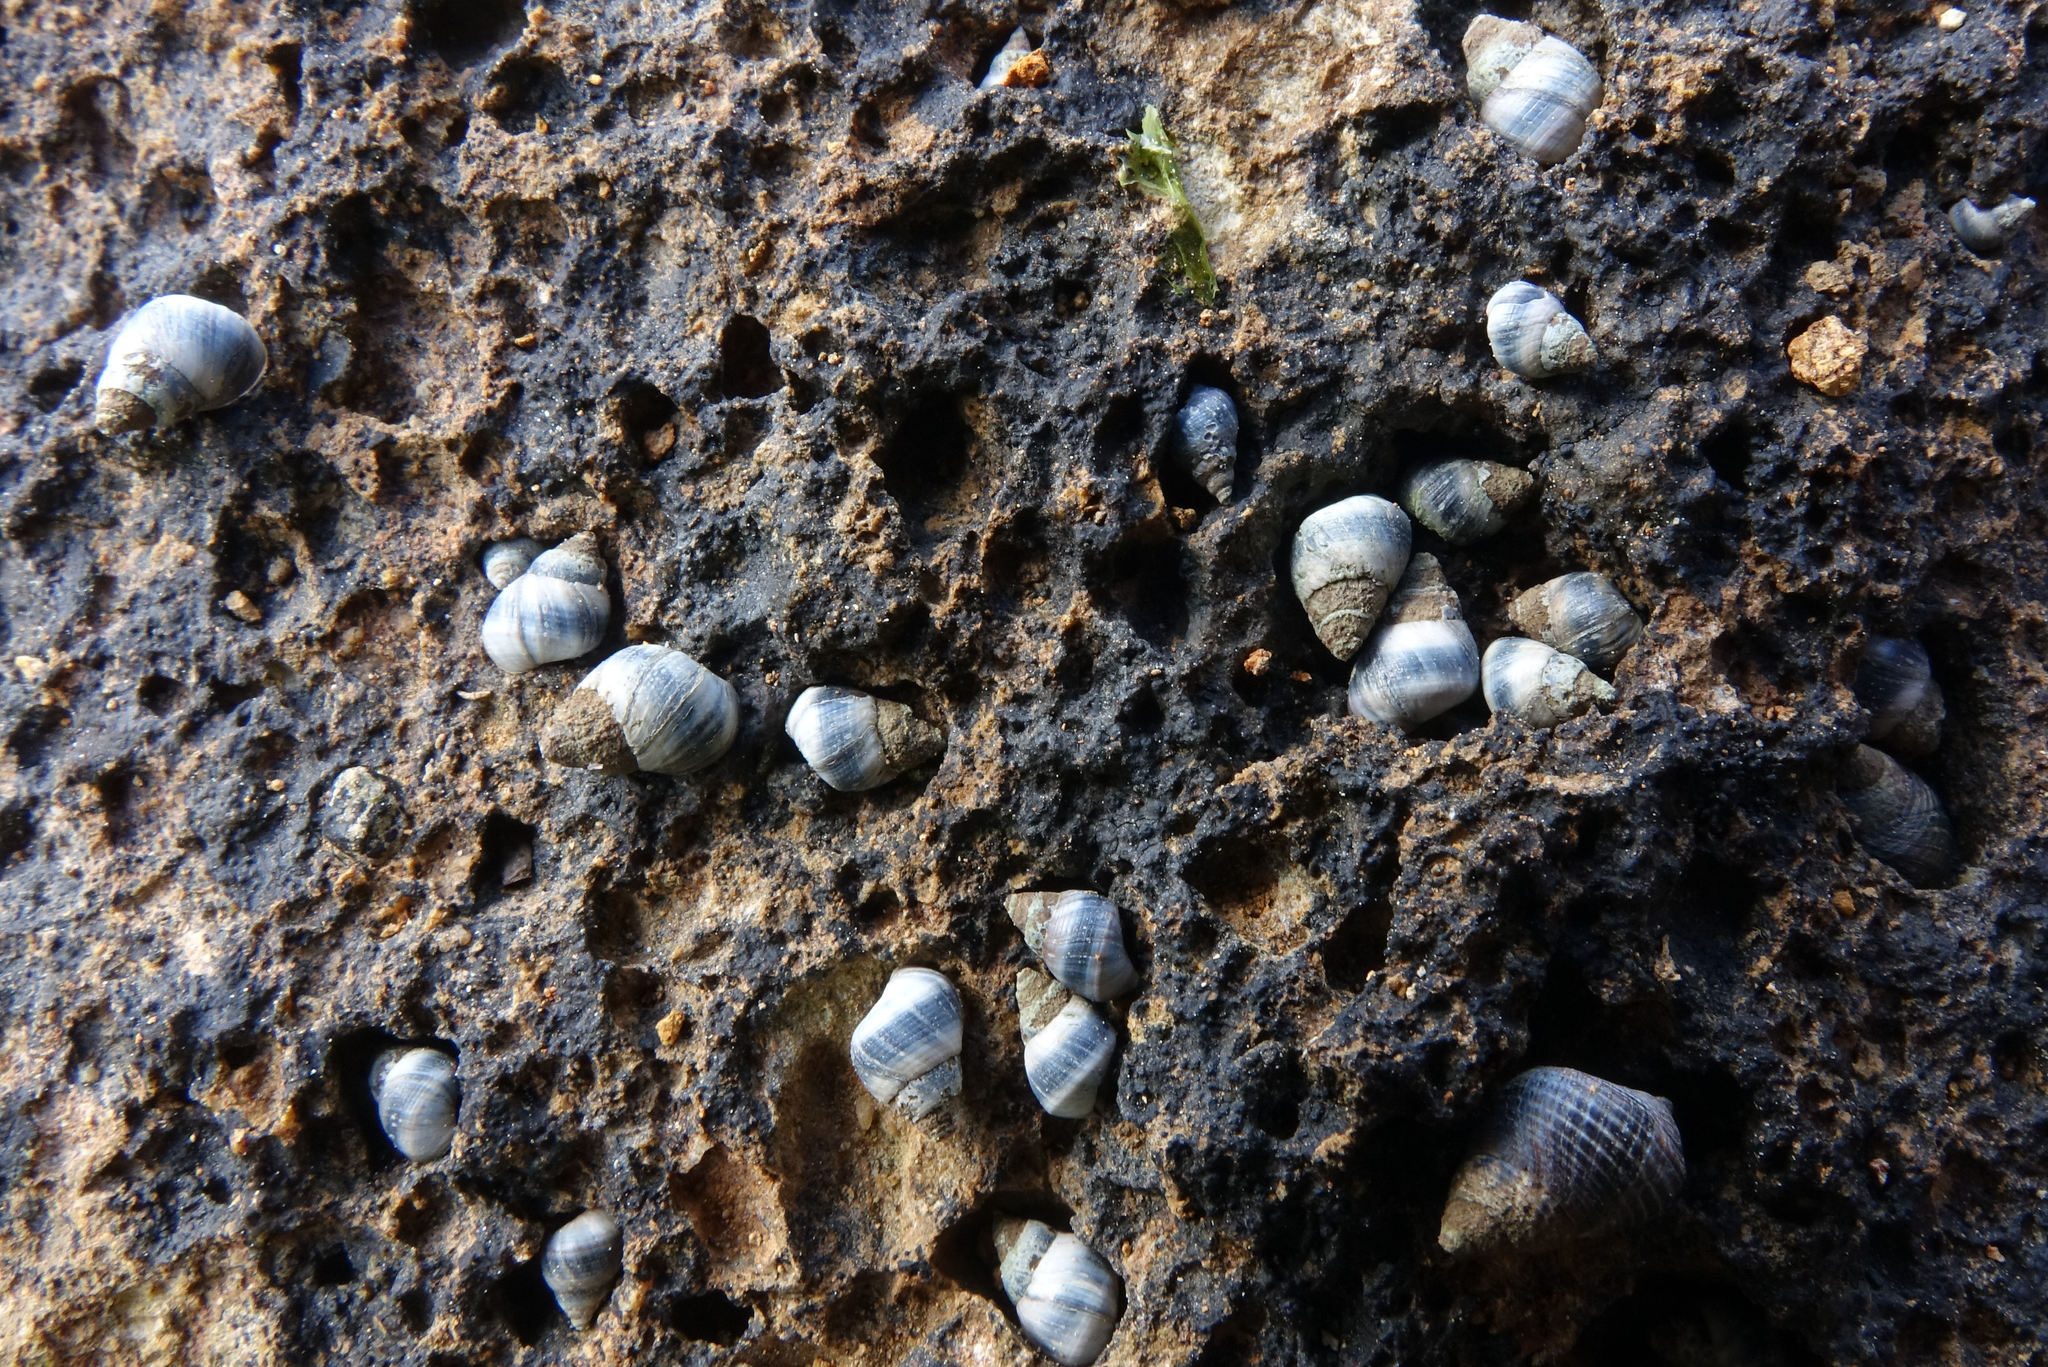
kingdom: Animalia
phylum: Mollusca
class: Gastropoda
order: Littorinimorpha
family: Littorinidae
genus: Austrolittorina
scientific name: Austrolittorina antipodum
